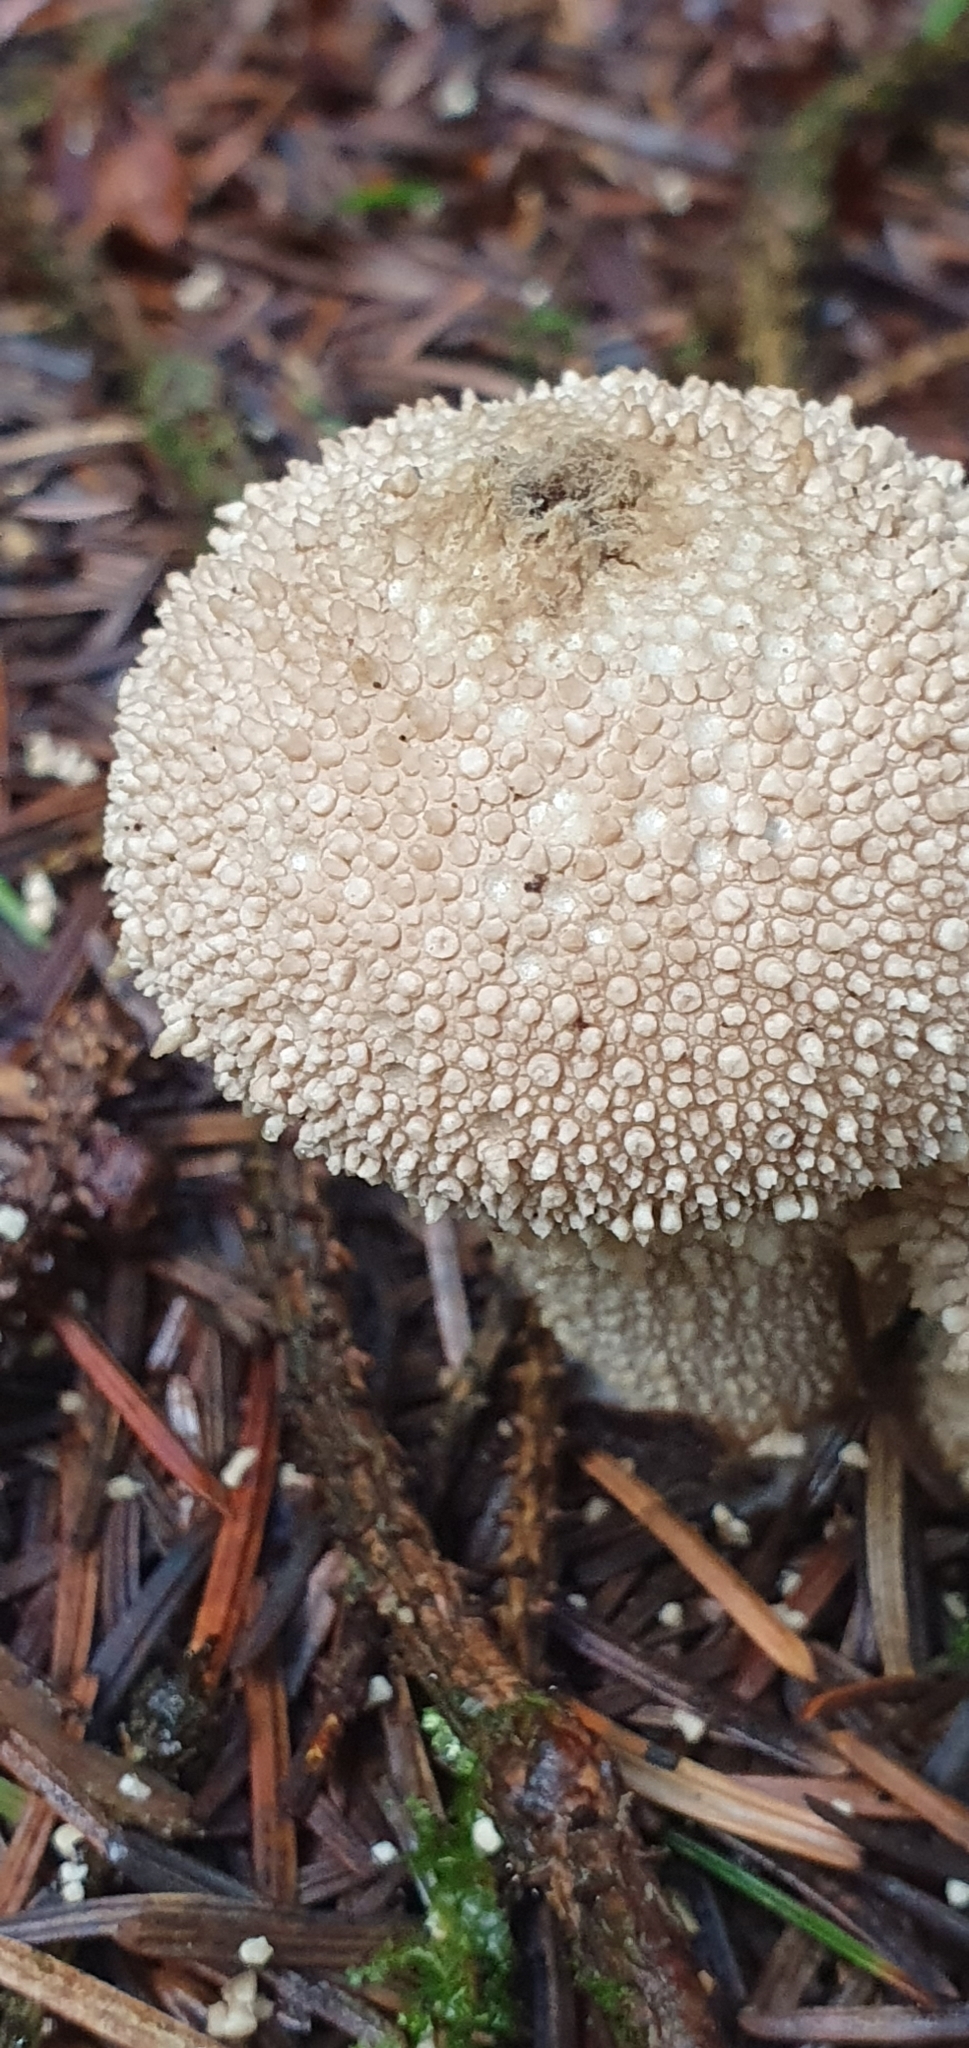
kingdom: Fungi
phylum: Basidiomycota
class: Agaricomycetes
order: Agaricales
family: Lycoperdaceae
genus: Lycoperdon
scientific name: Lycoperdon perlatum
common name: Common puffball
